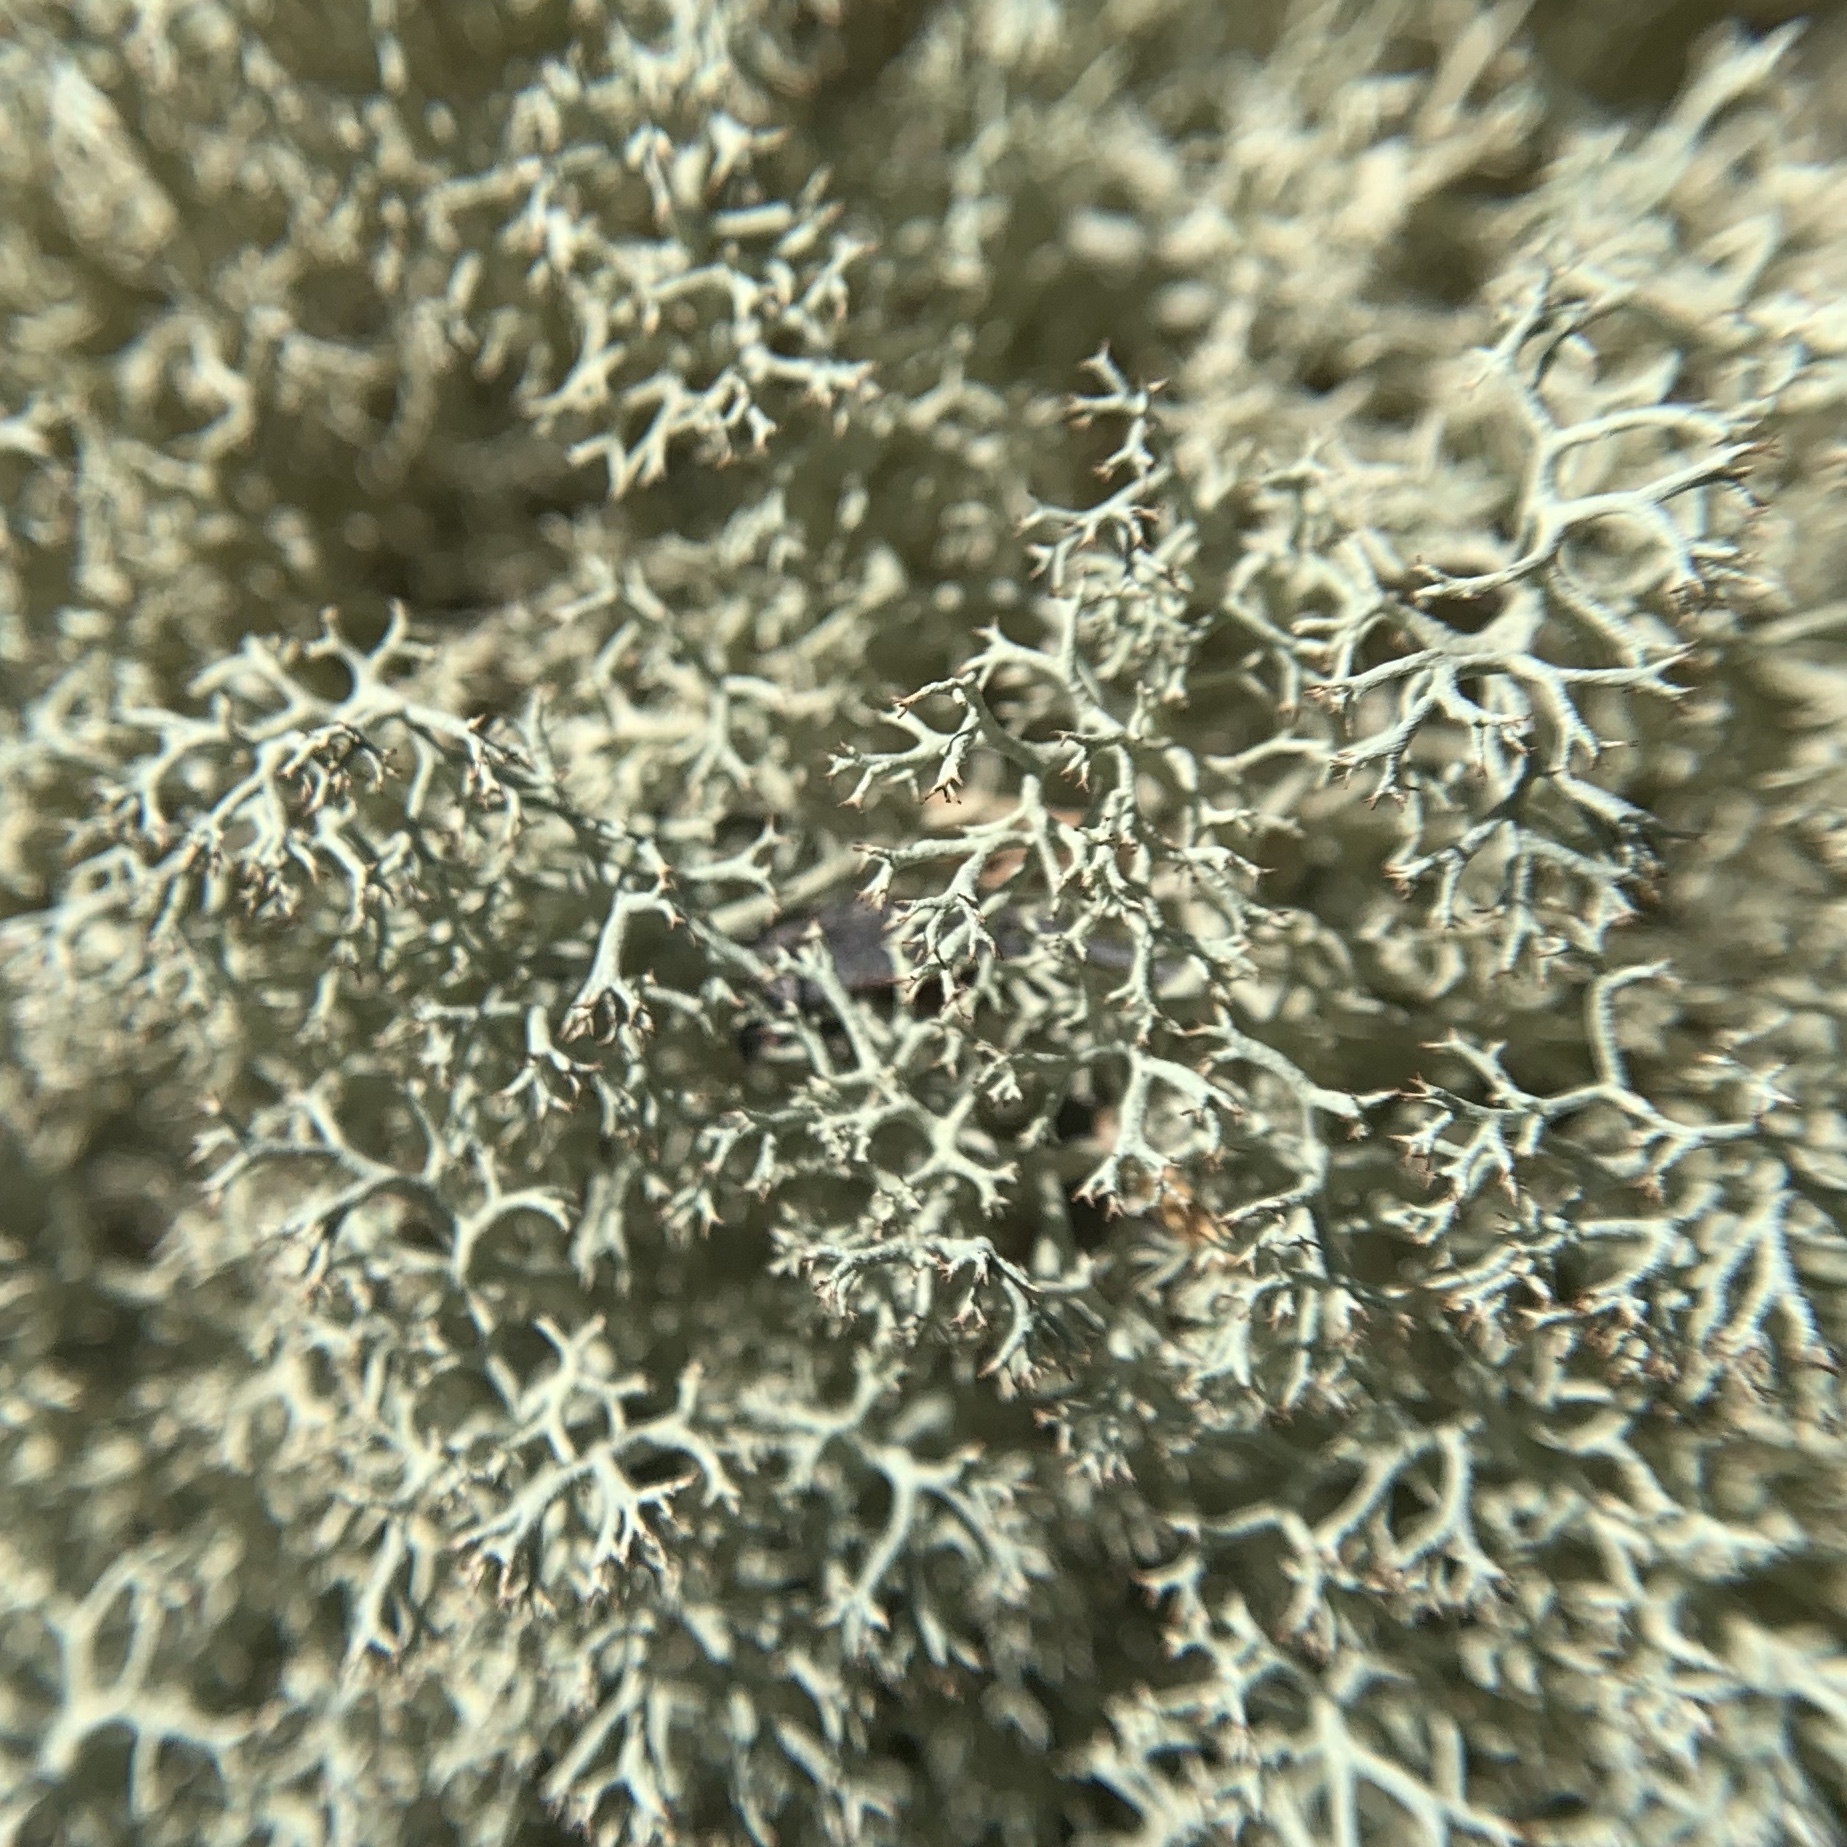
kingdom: Fungi
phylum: Ascomycota
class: Lecanoromycetes
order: Lecanorales
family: Cladoniaceae
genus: Cladonia
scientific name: Cladonia subtenuis
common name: Dixie reindeer lichen
